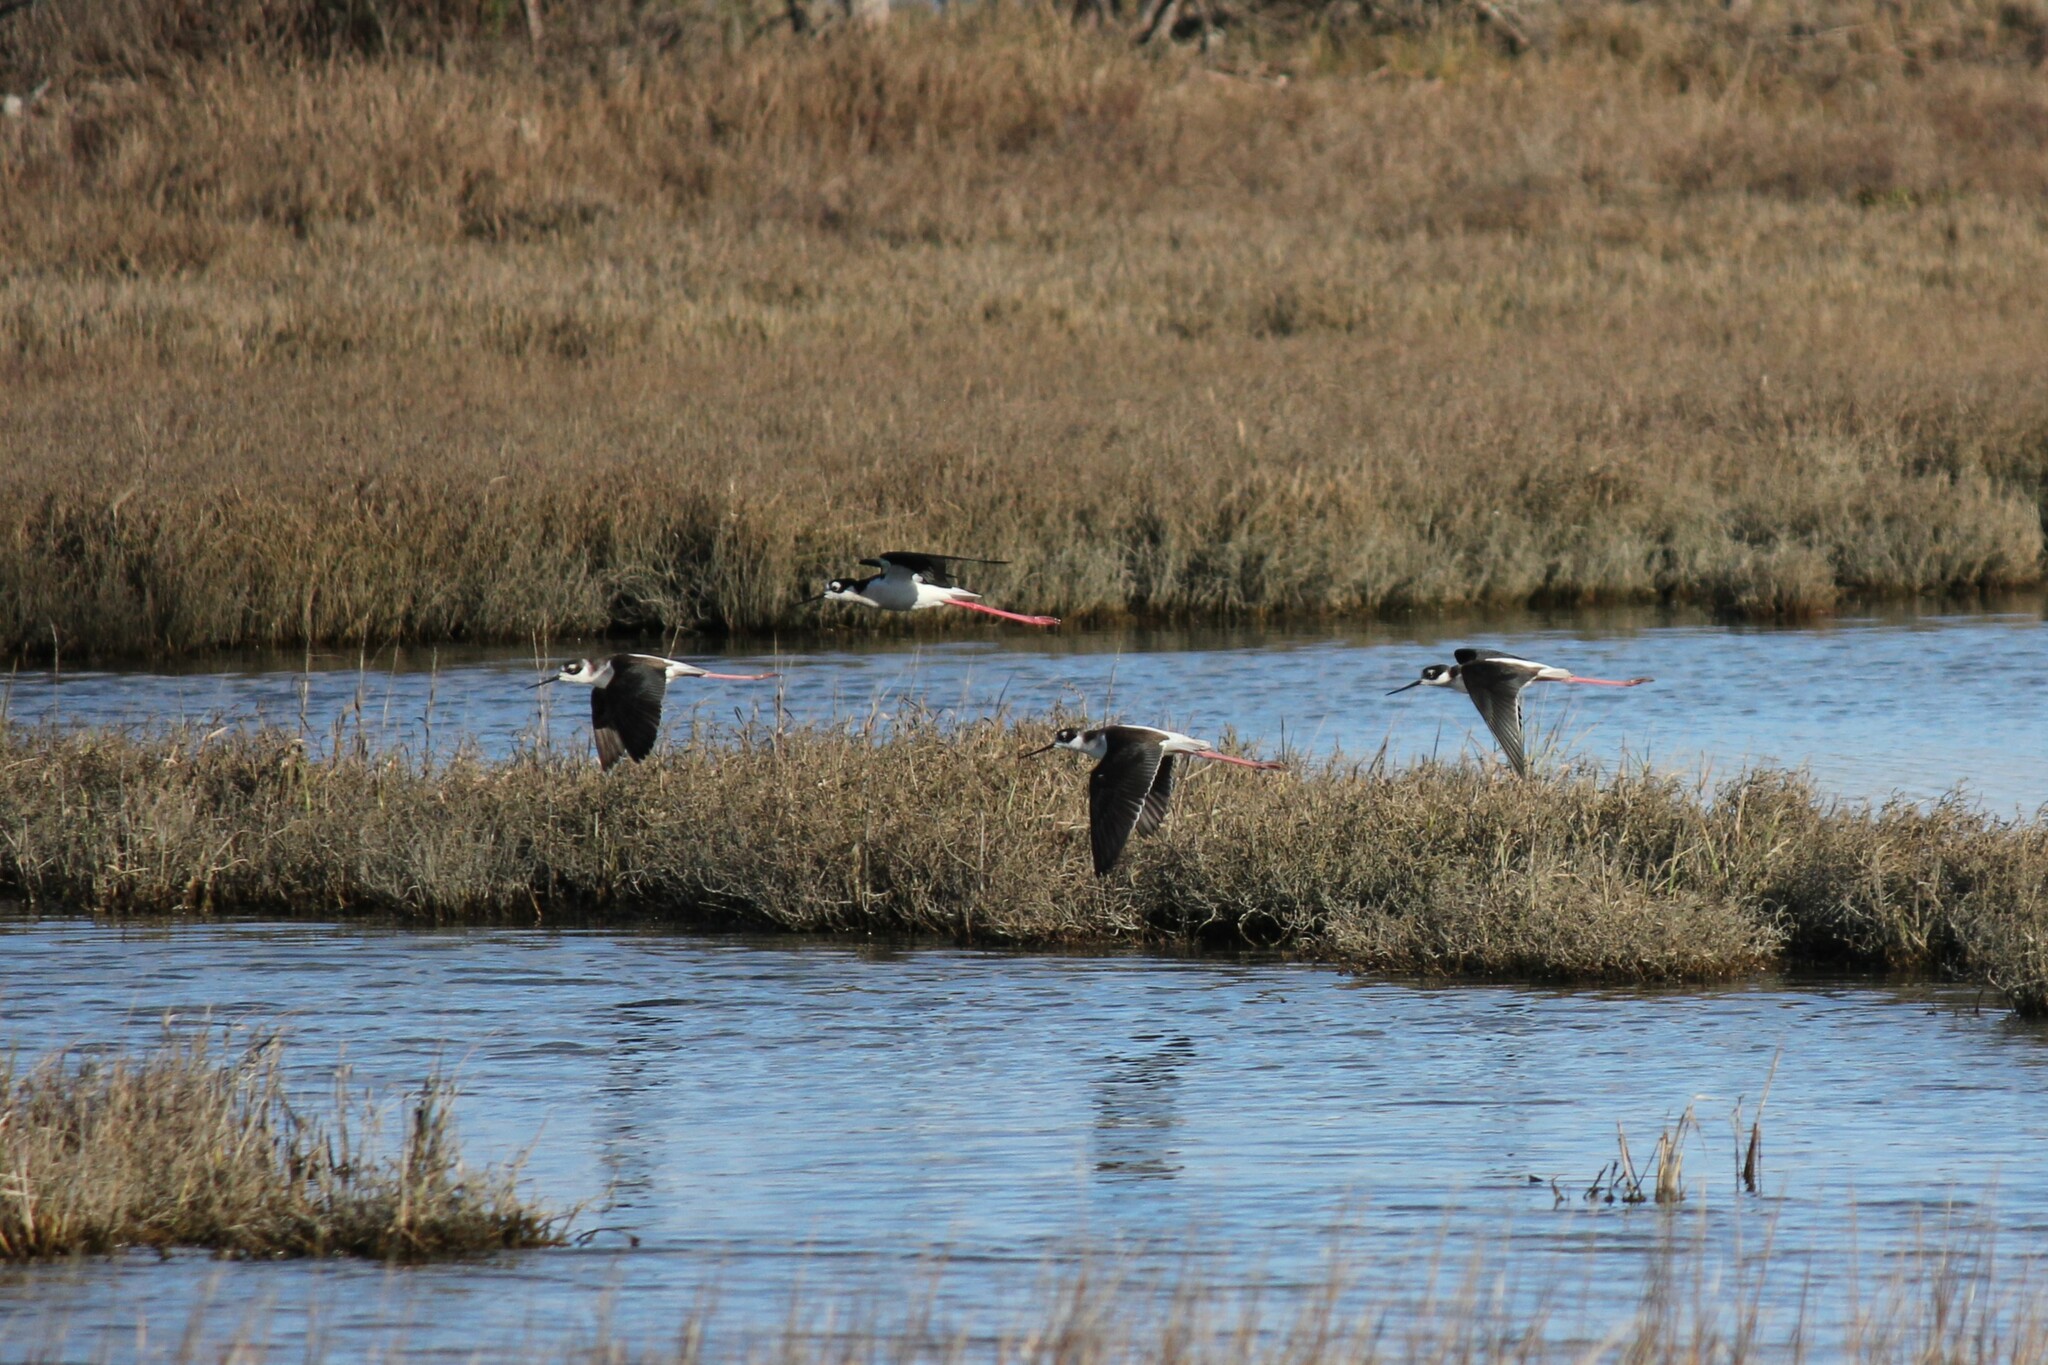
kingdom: Animalia
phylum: Chordata
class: Aves
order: Charadriiformes
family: Recurvirostridae
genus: Himantopus
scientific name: Himantopus mexicanus
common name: Black-necked stilt
